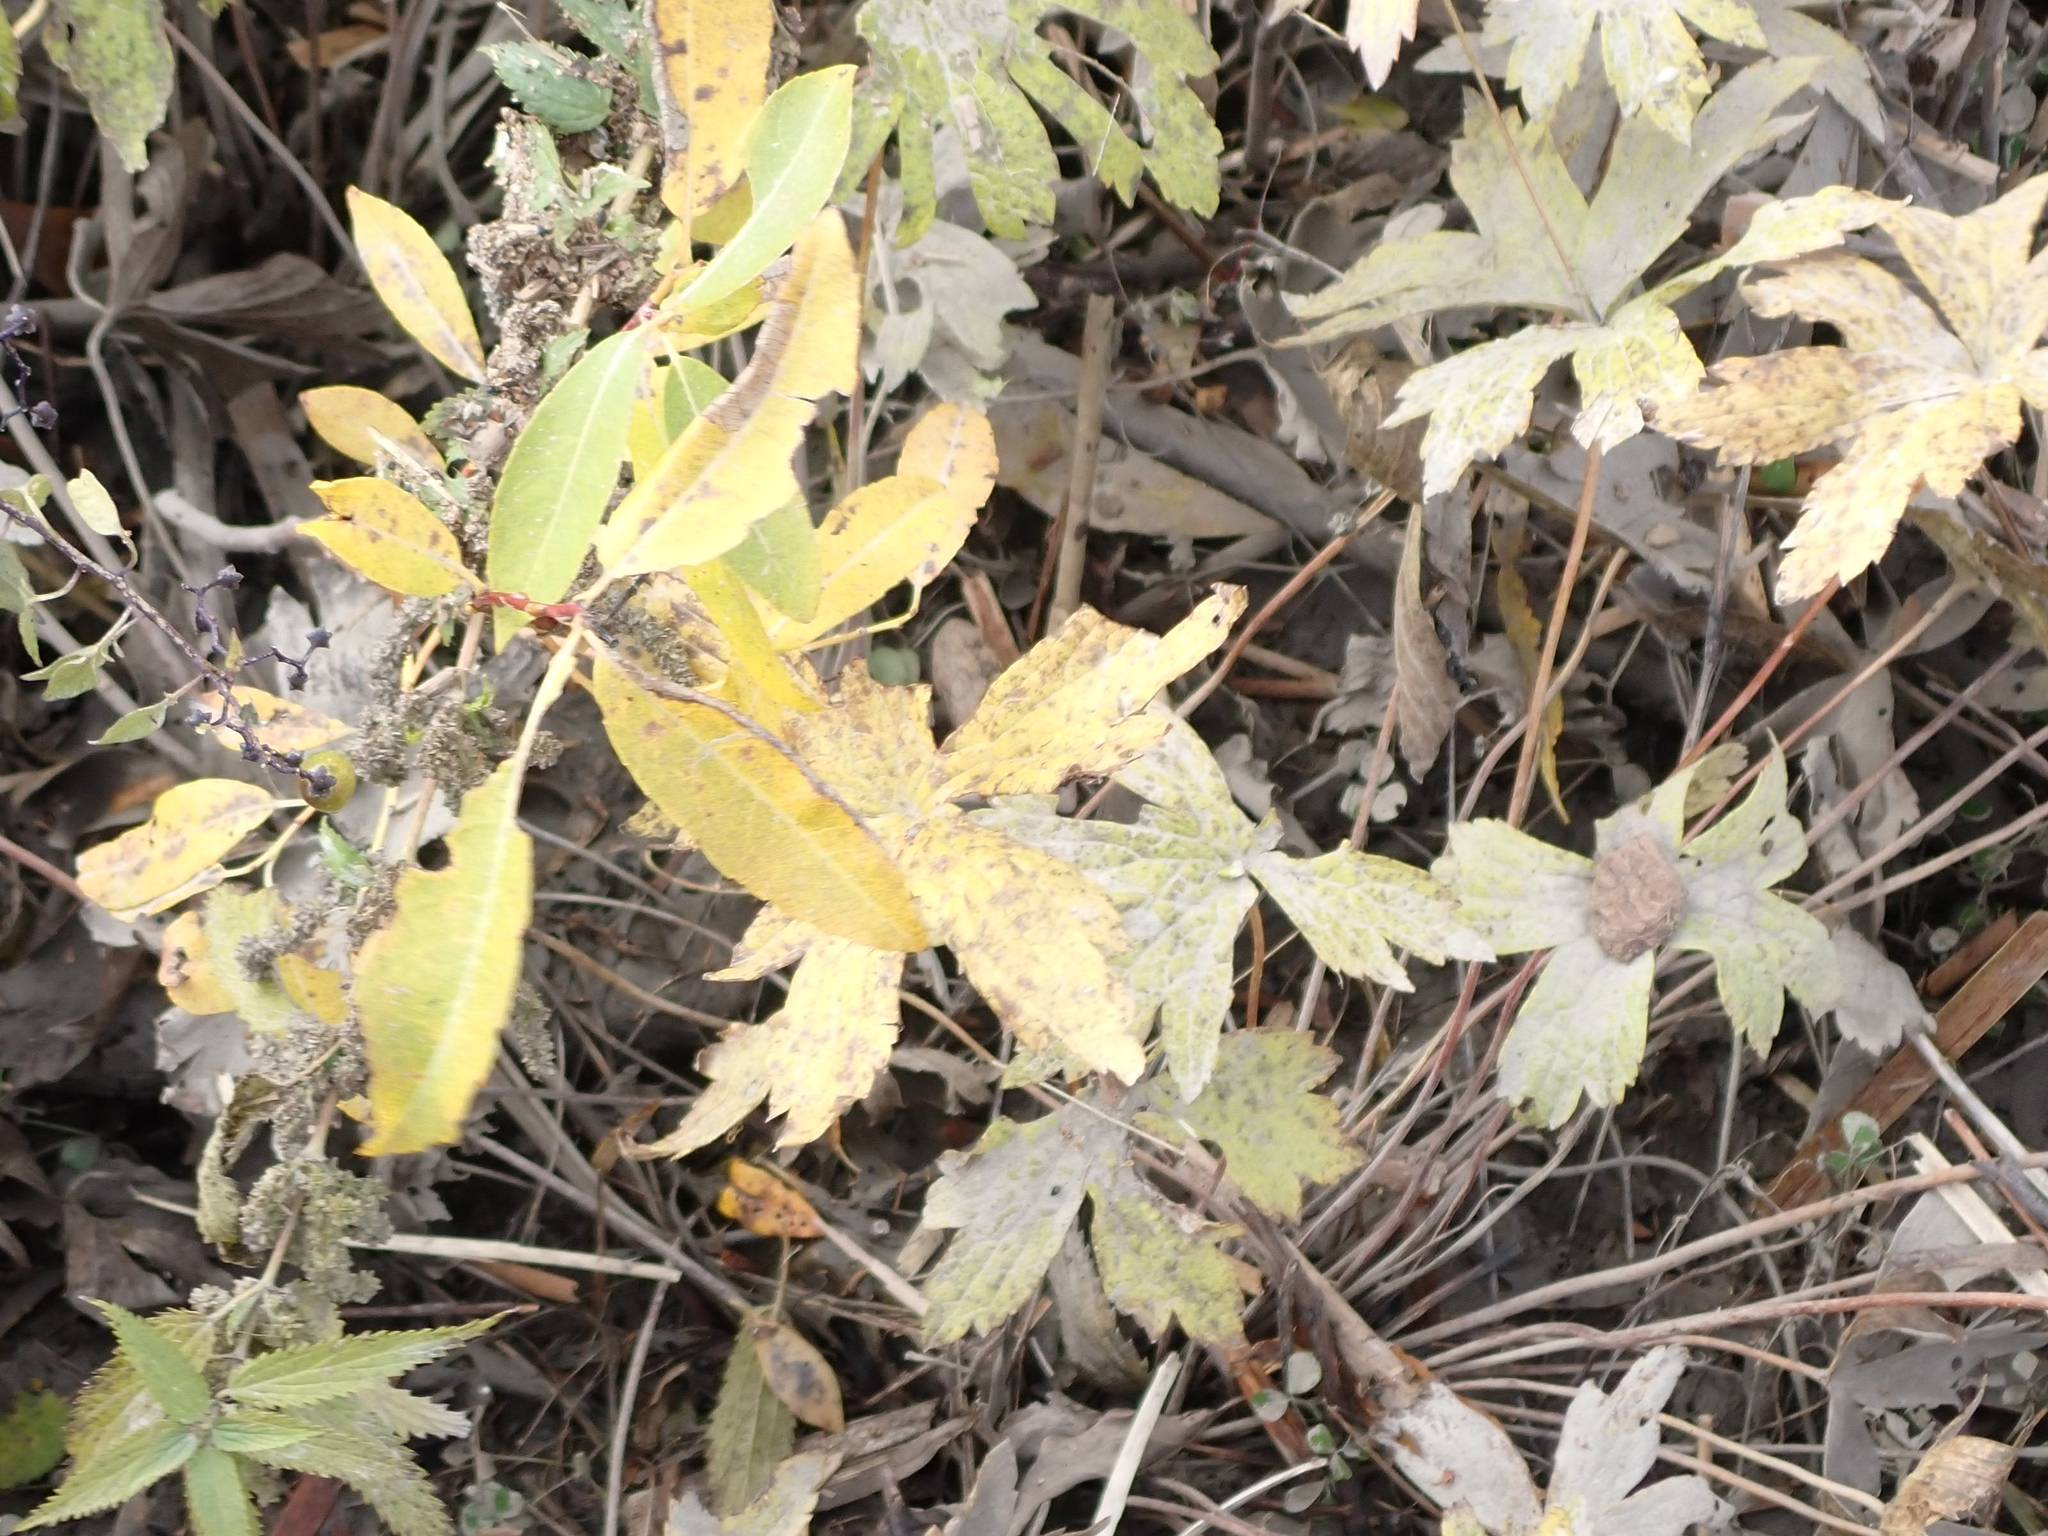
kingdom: Plantae
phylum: Tracheophyta
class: Magnoliopsida
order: Ranunculales
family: Ranunculaceae
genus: Anemonastrum
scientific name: Anemonastrum canadense
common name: Canada anemone
